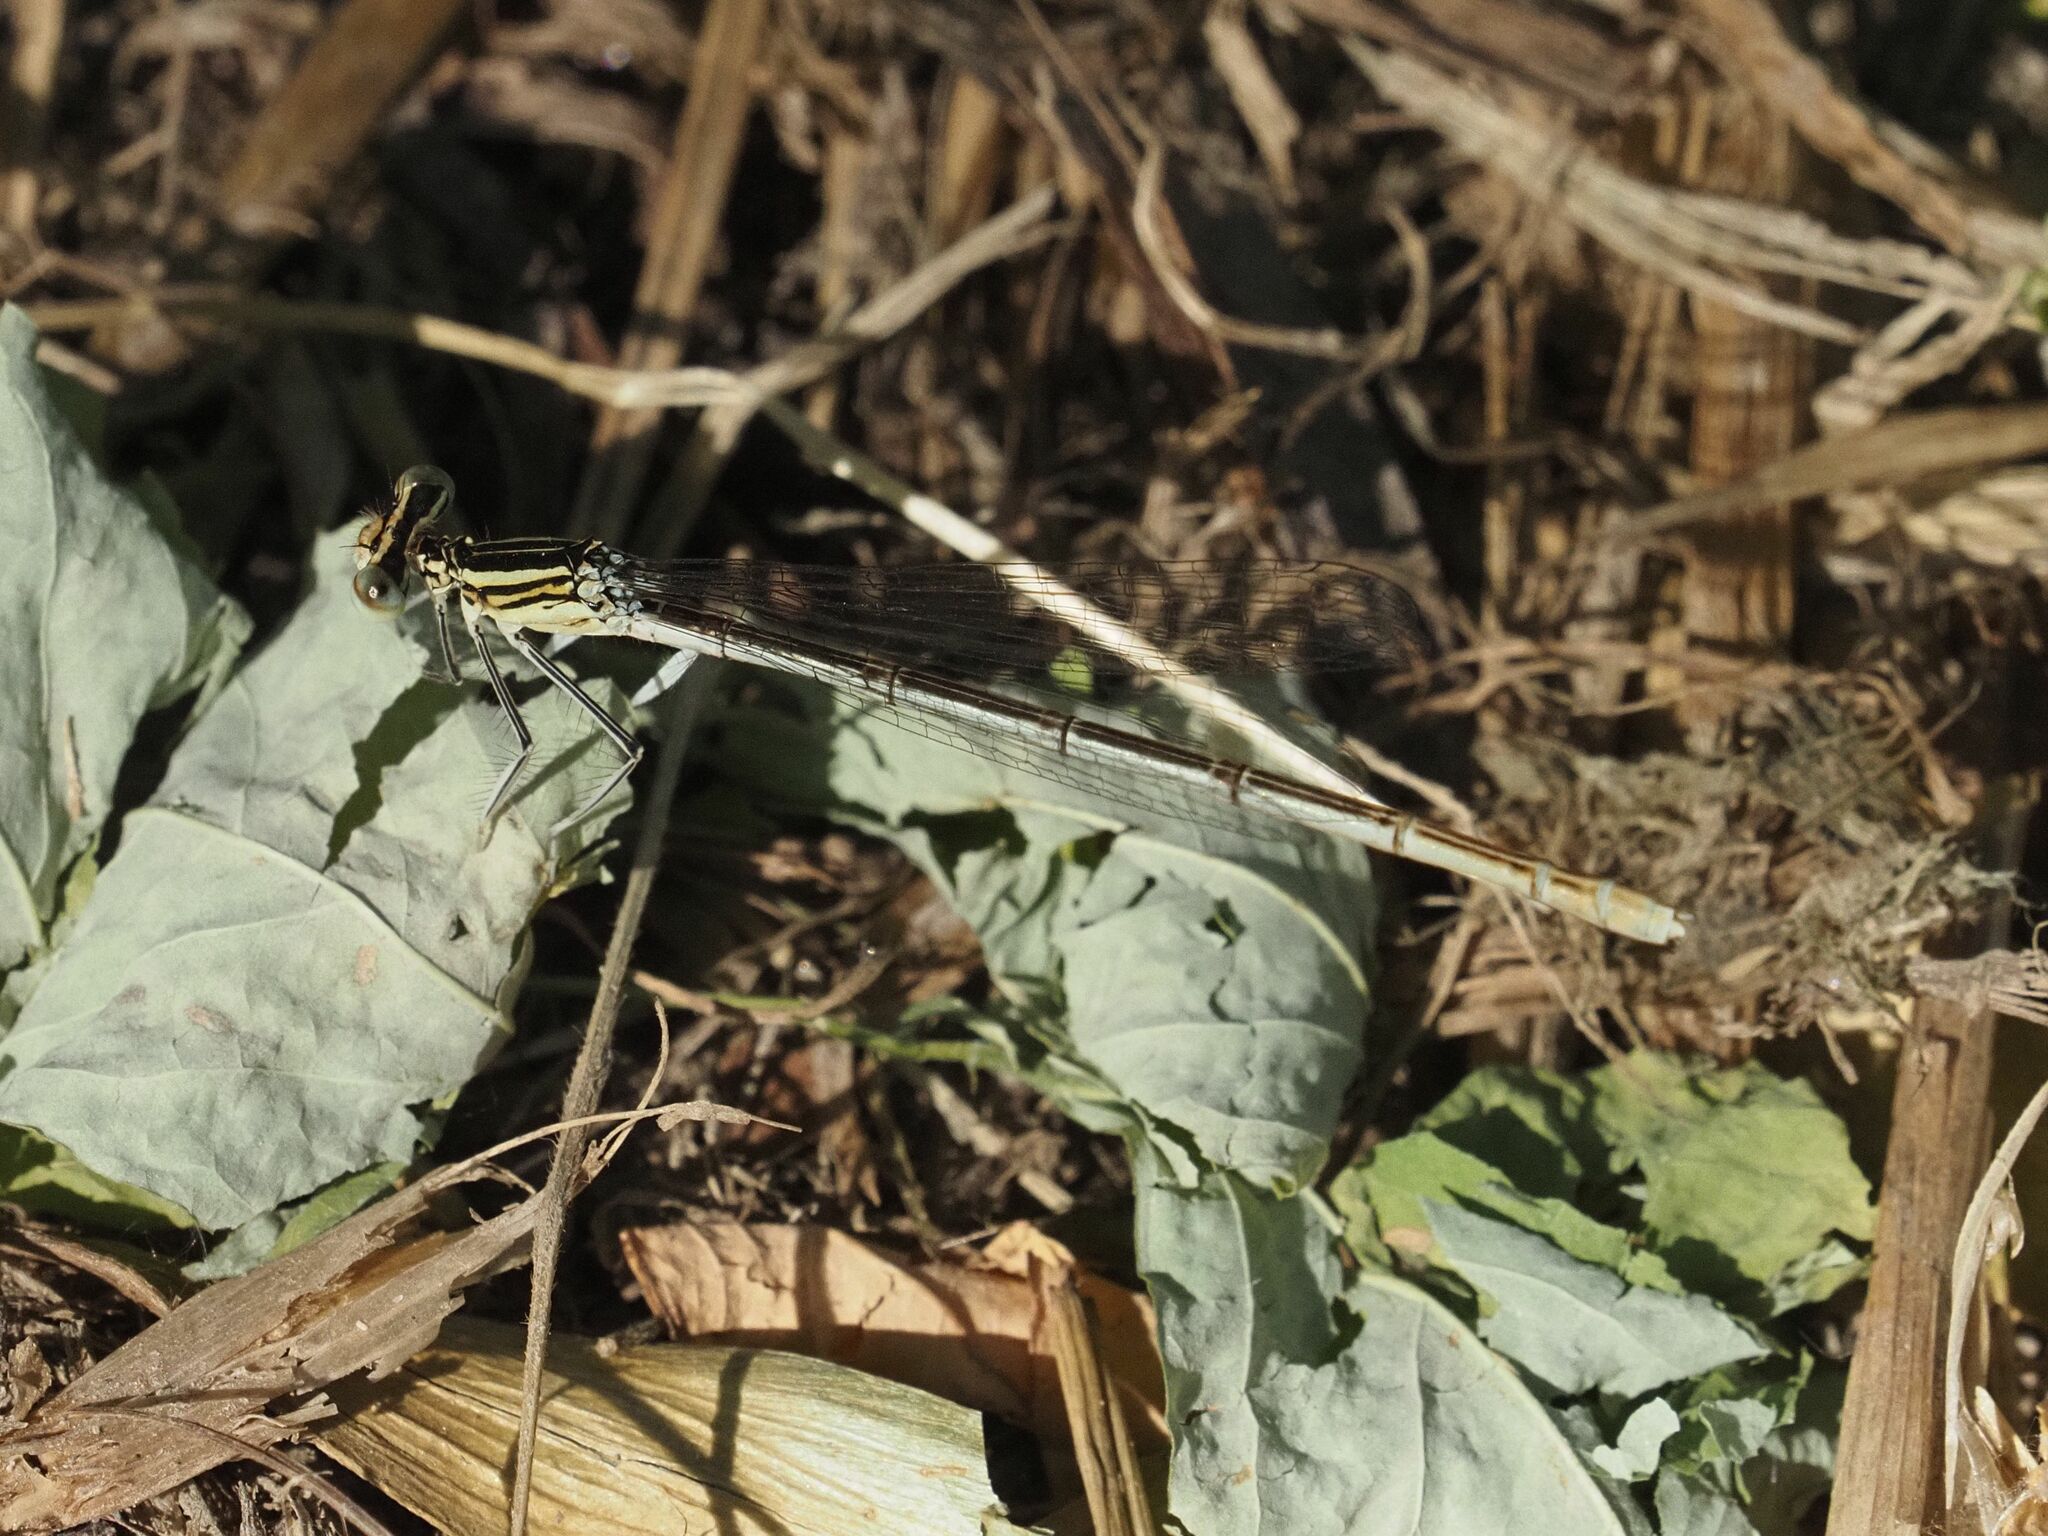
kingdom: Animalia
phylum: Arthropoda
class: Insecta
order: Odonata
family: Platycnemididae
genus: Platycnemis
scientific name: Platycnemis pennipes
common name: White-legged damselfly
